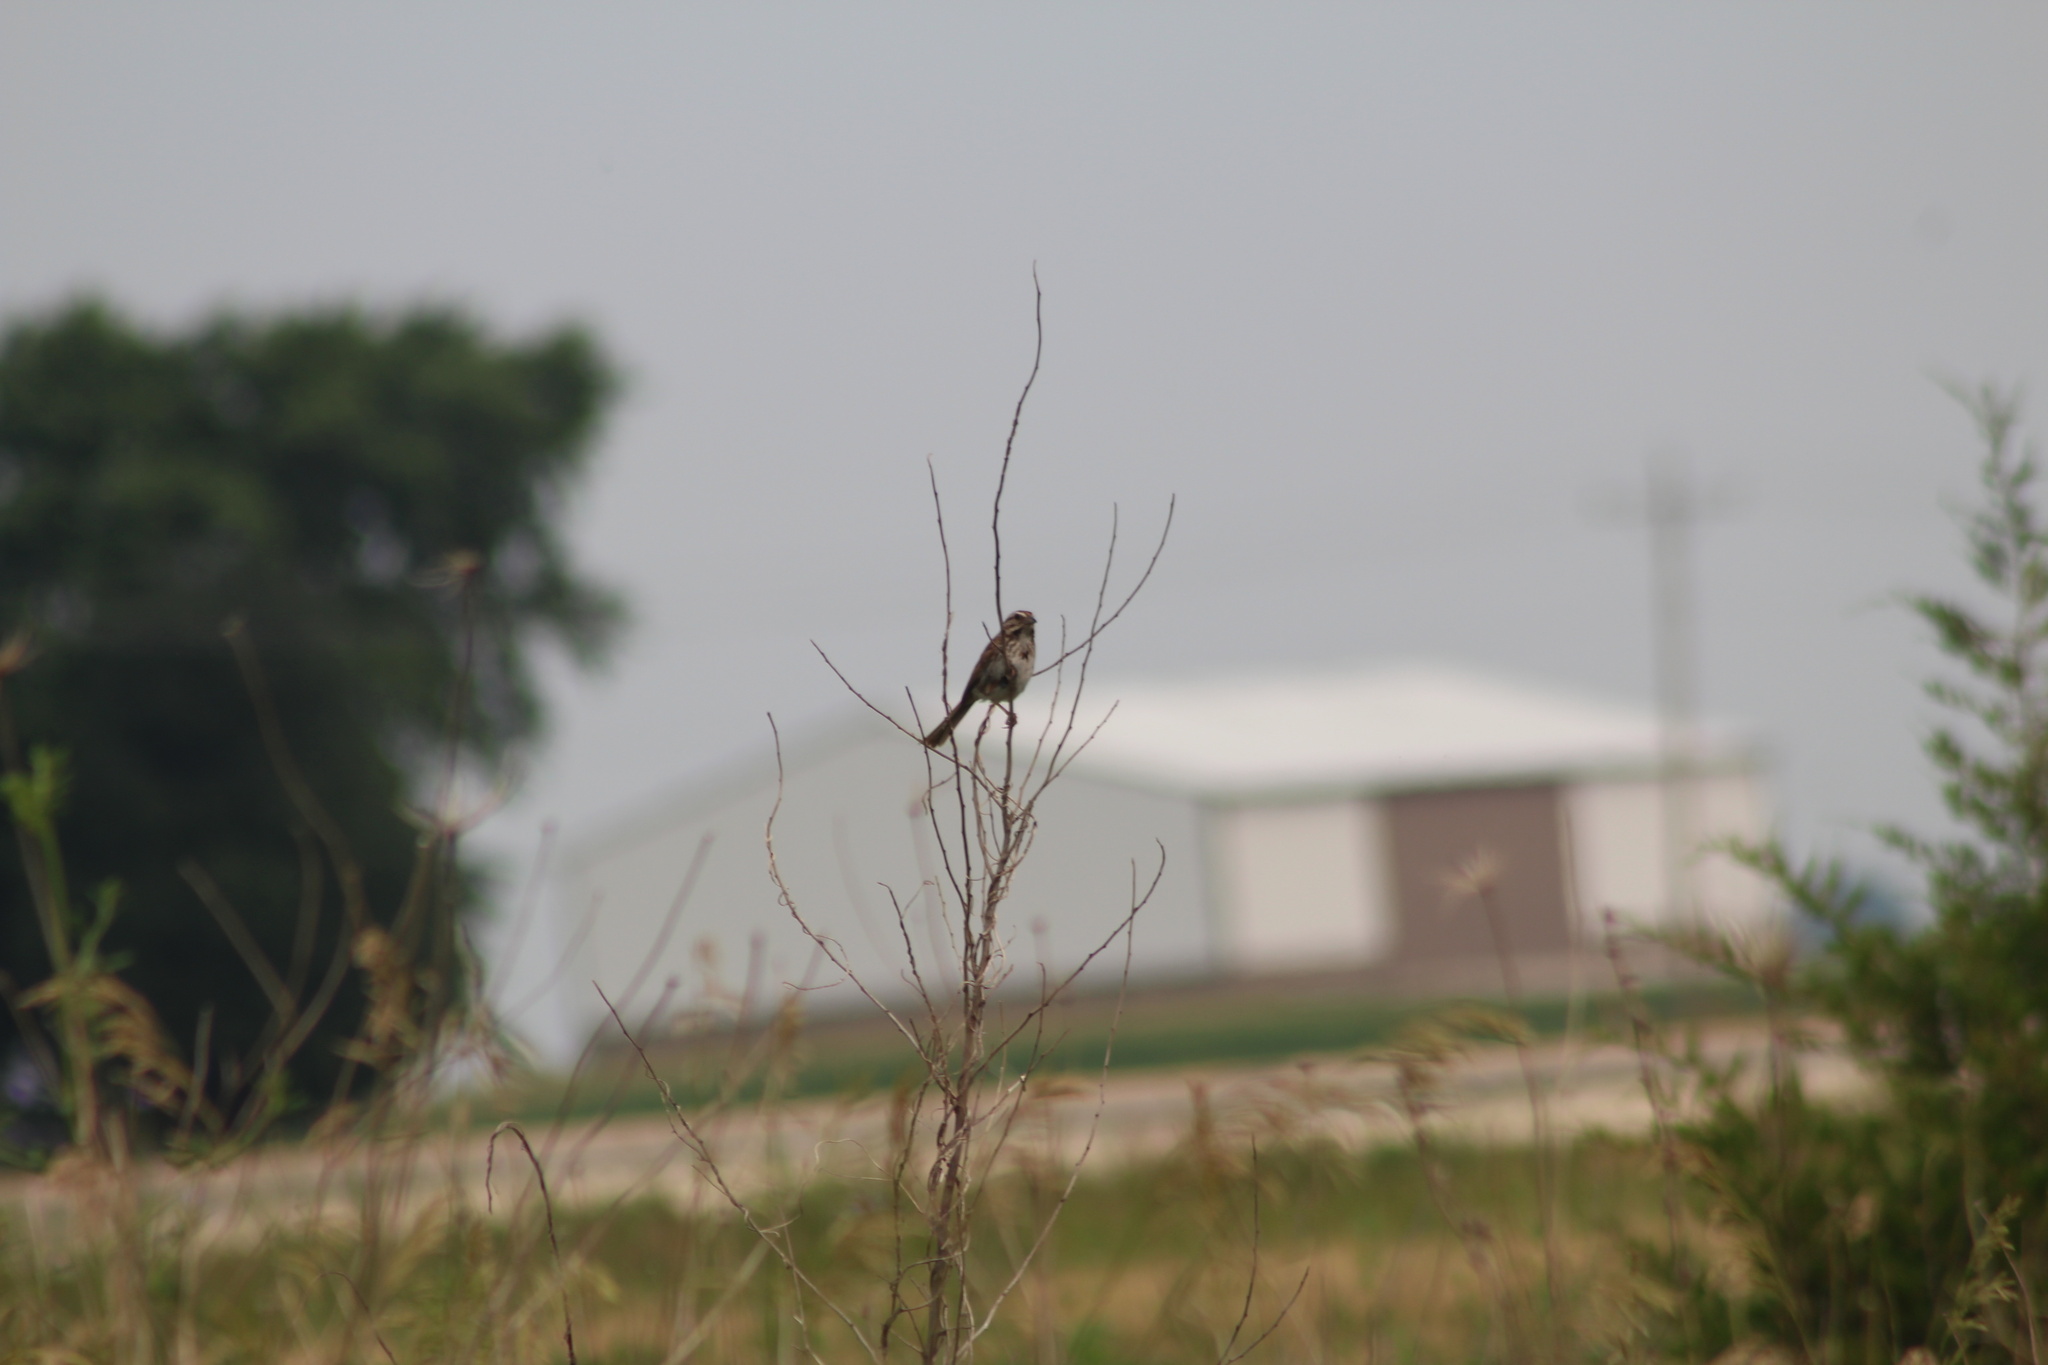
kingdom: Animalia
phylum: Chordata
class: Aves
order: Passeriformes
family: Passerellidae
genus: Melospiza
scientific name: Melospiza melodia
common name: Song sparrow
